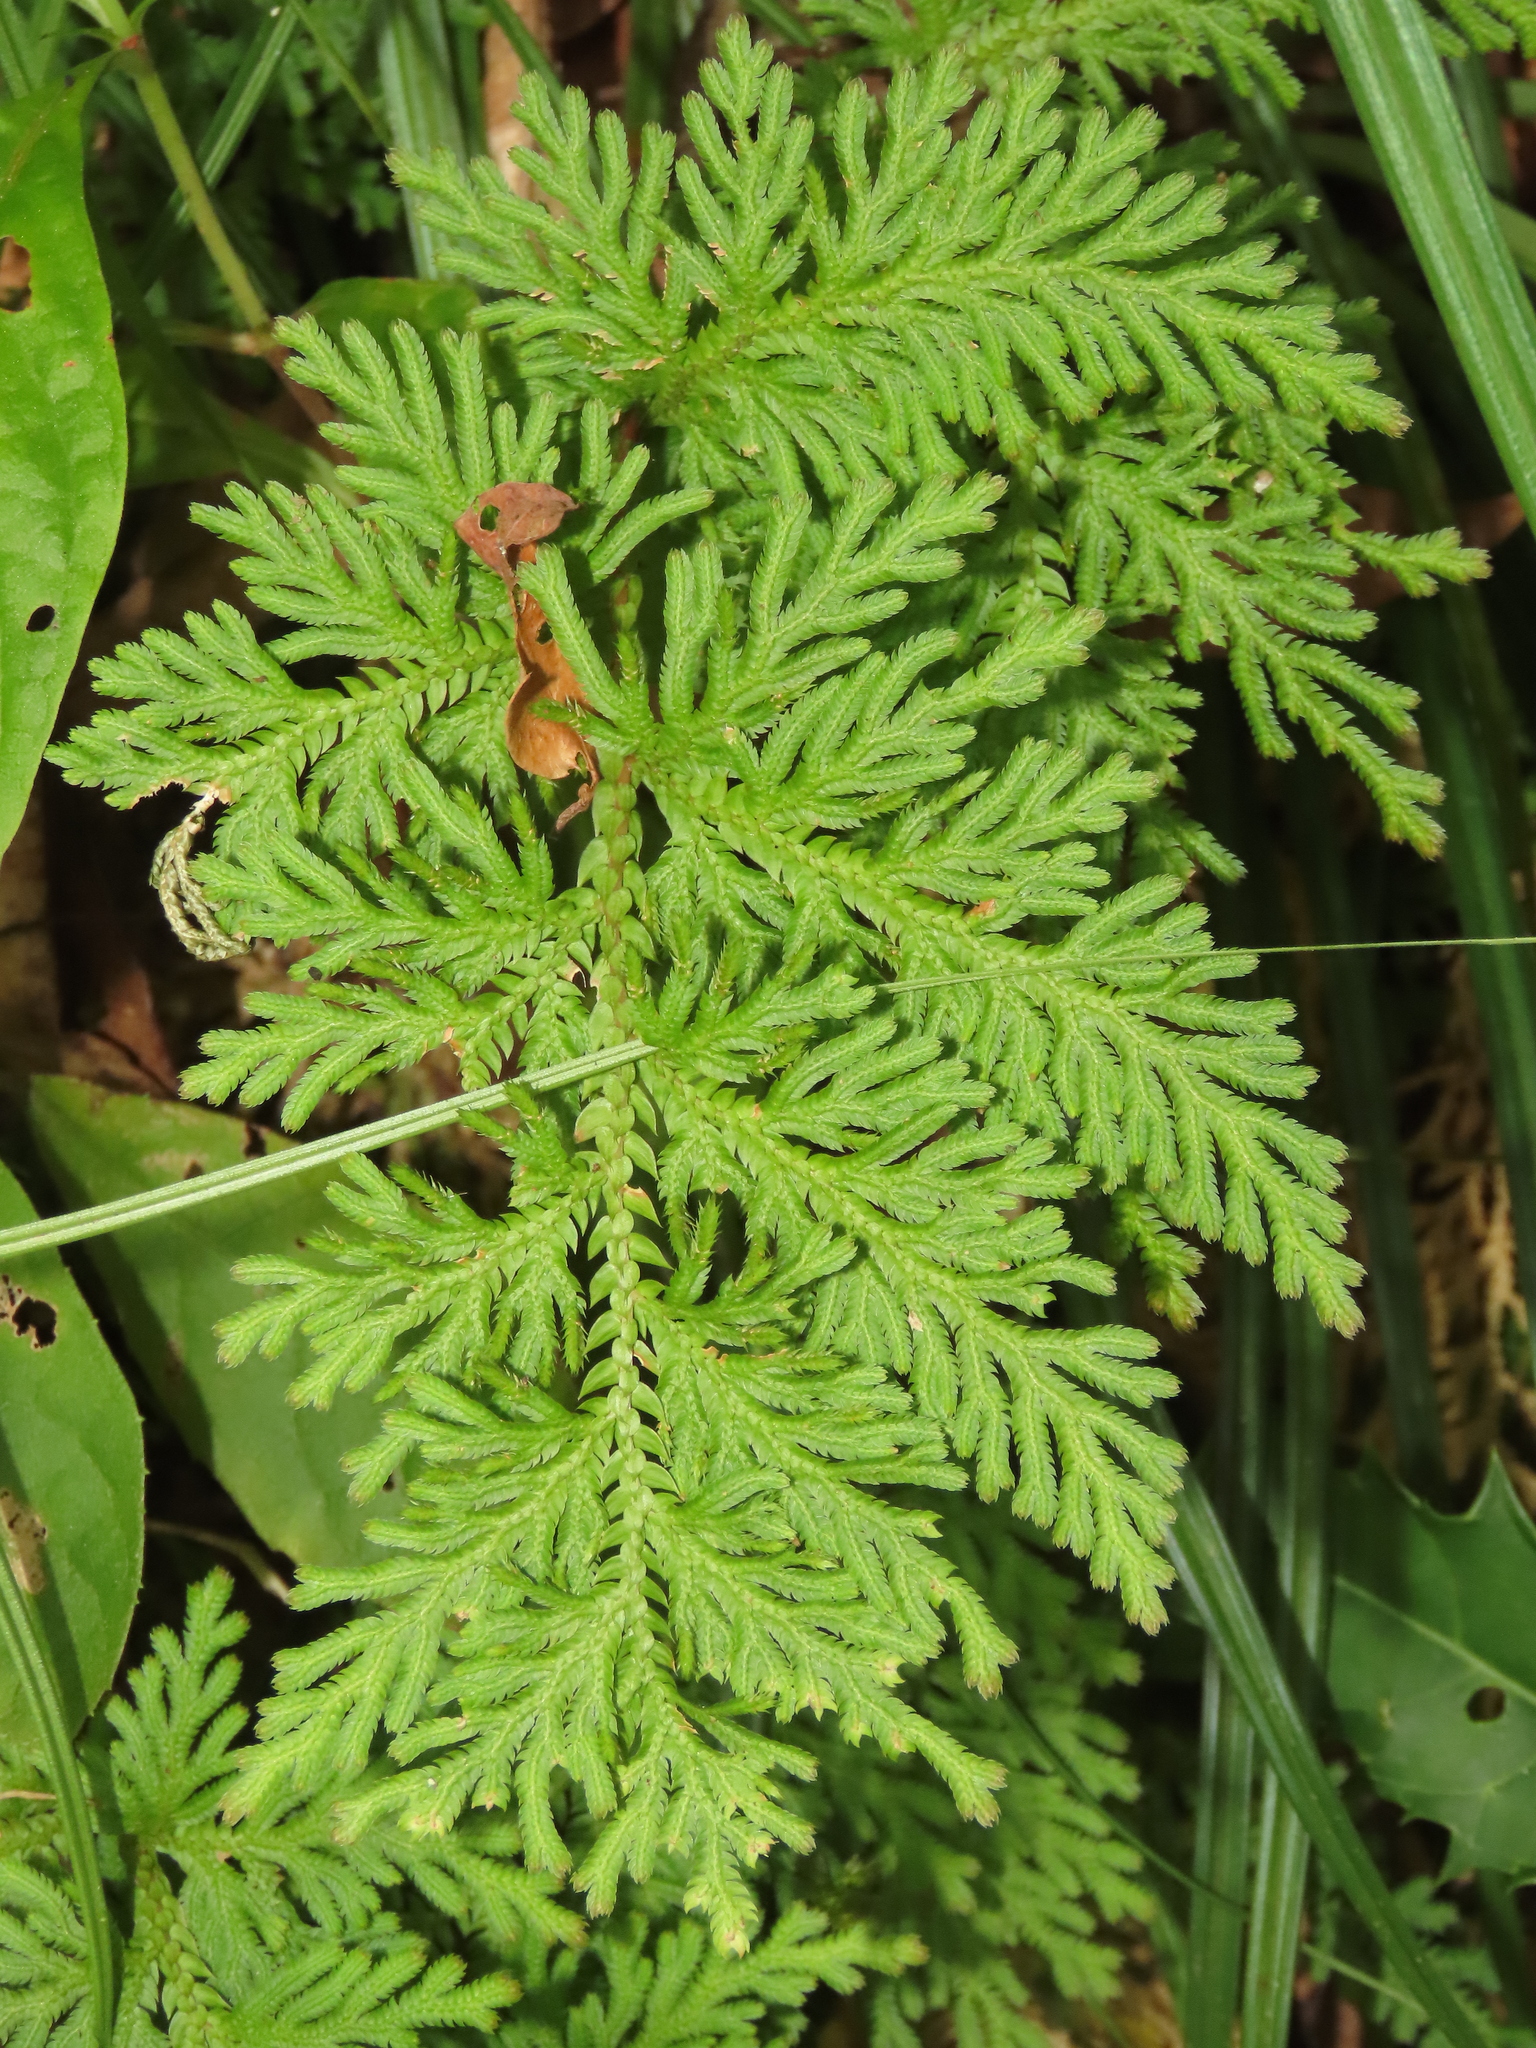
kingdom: Plantae
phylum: Tracheophyta
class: Lycopodiopsida
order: Selaginellales
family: Selaginellaceae
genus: Selaginella
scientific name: Selaginella moellendorffii
